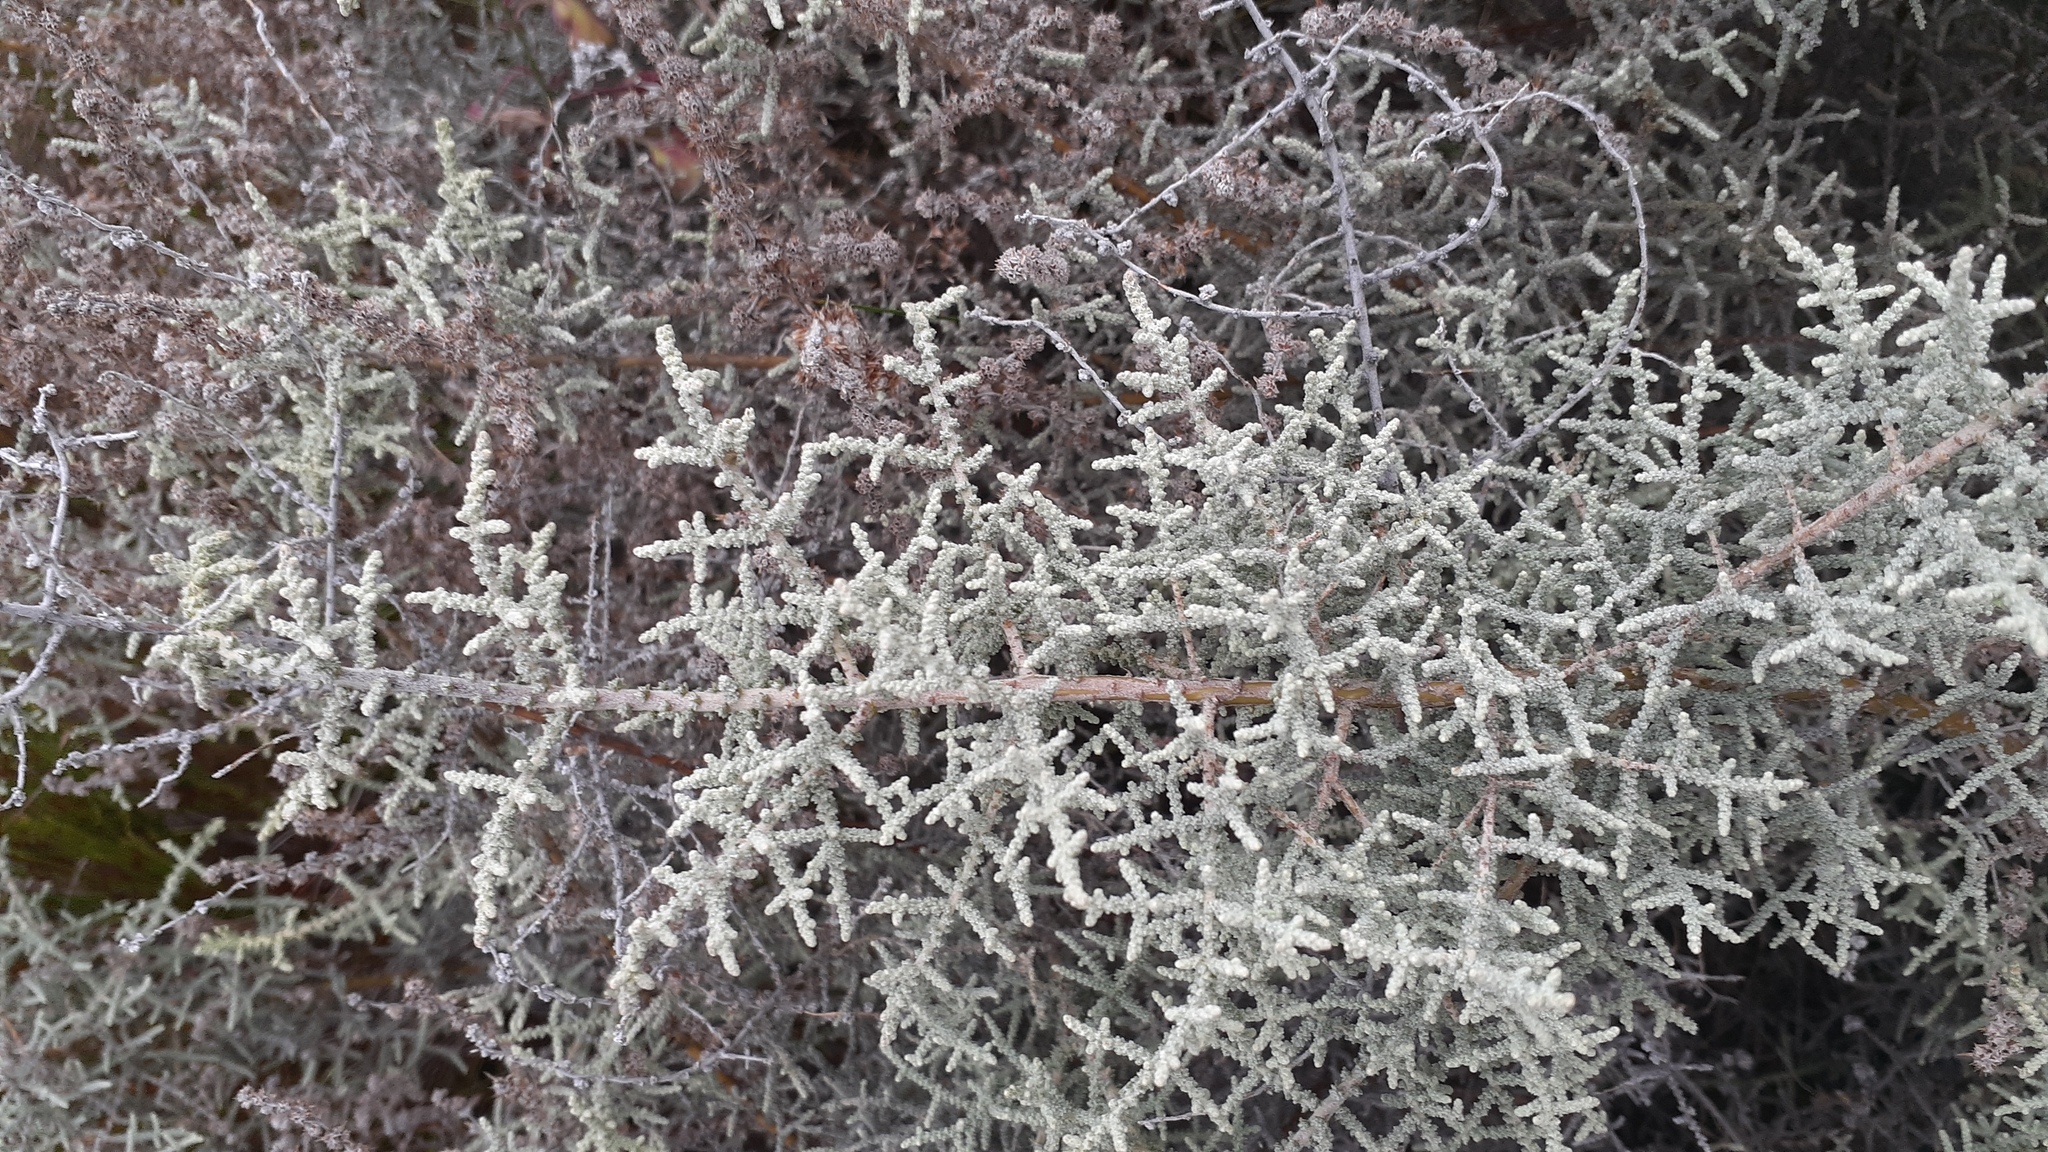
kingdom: Plantae
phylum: Tracheophyta
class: Magnoliopsida
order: Asterales
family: Asteraceae
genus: Seriphium
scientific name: Seriphium plumosum
